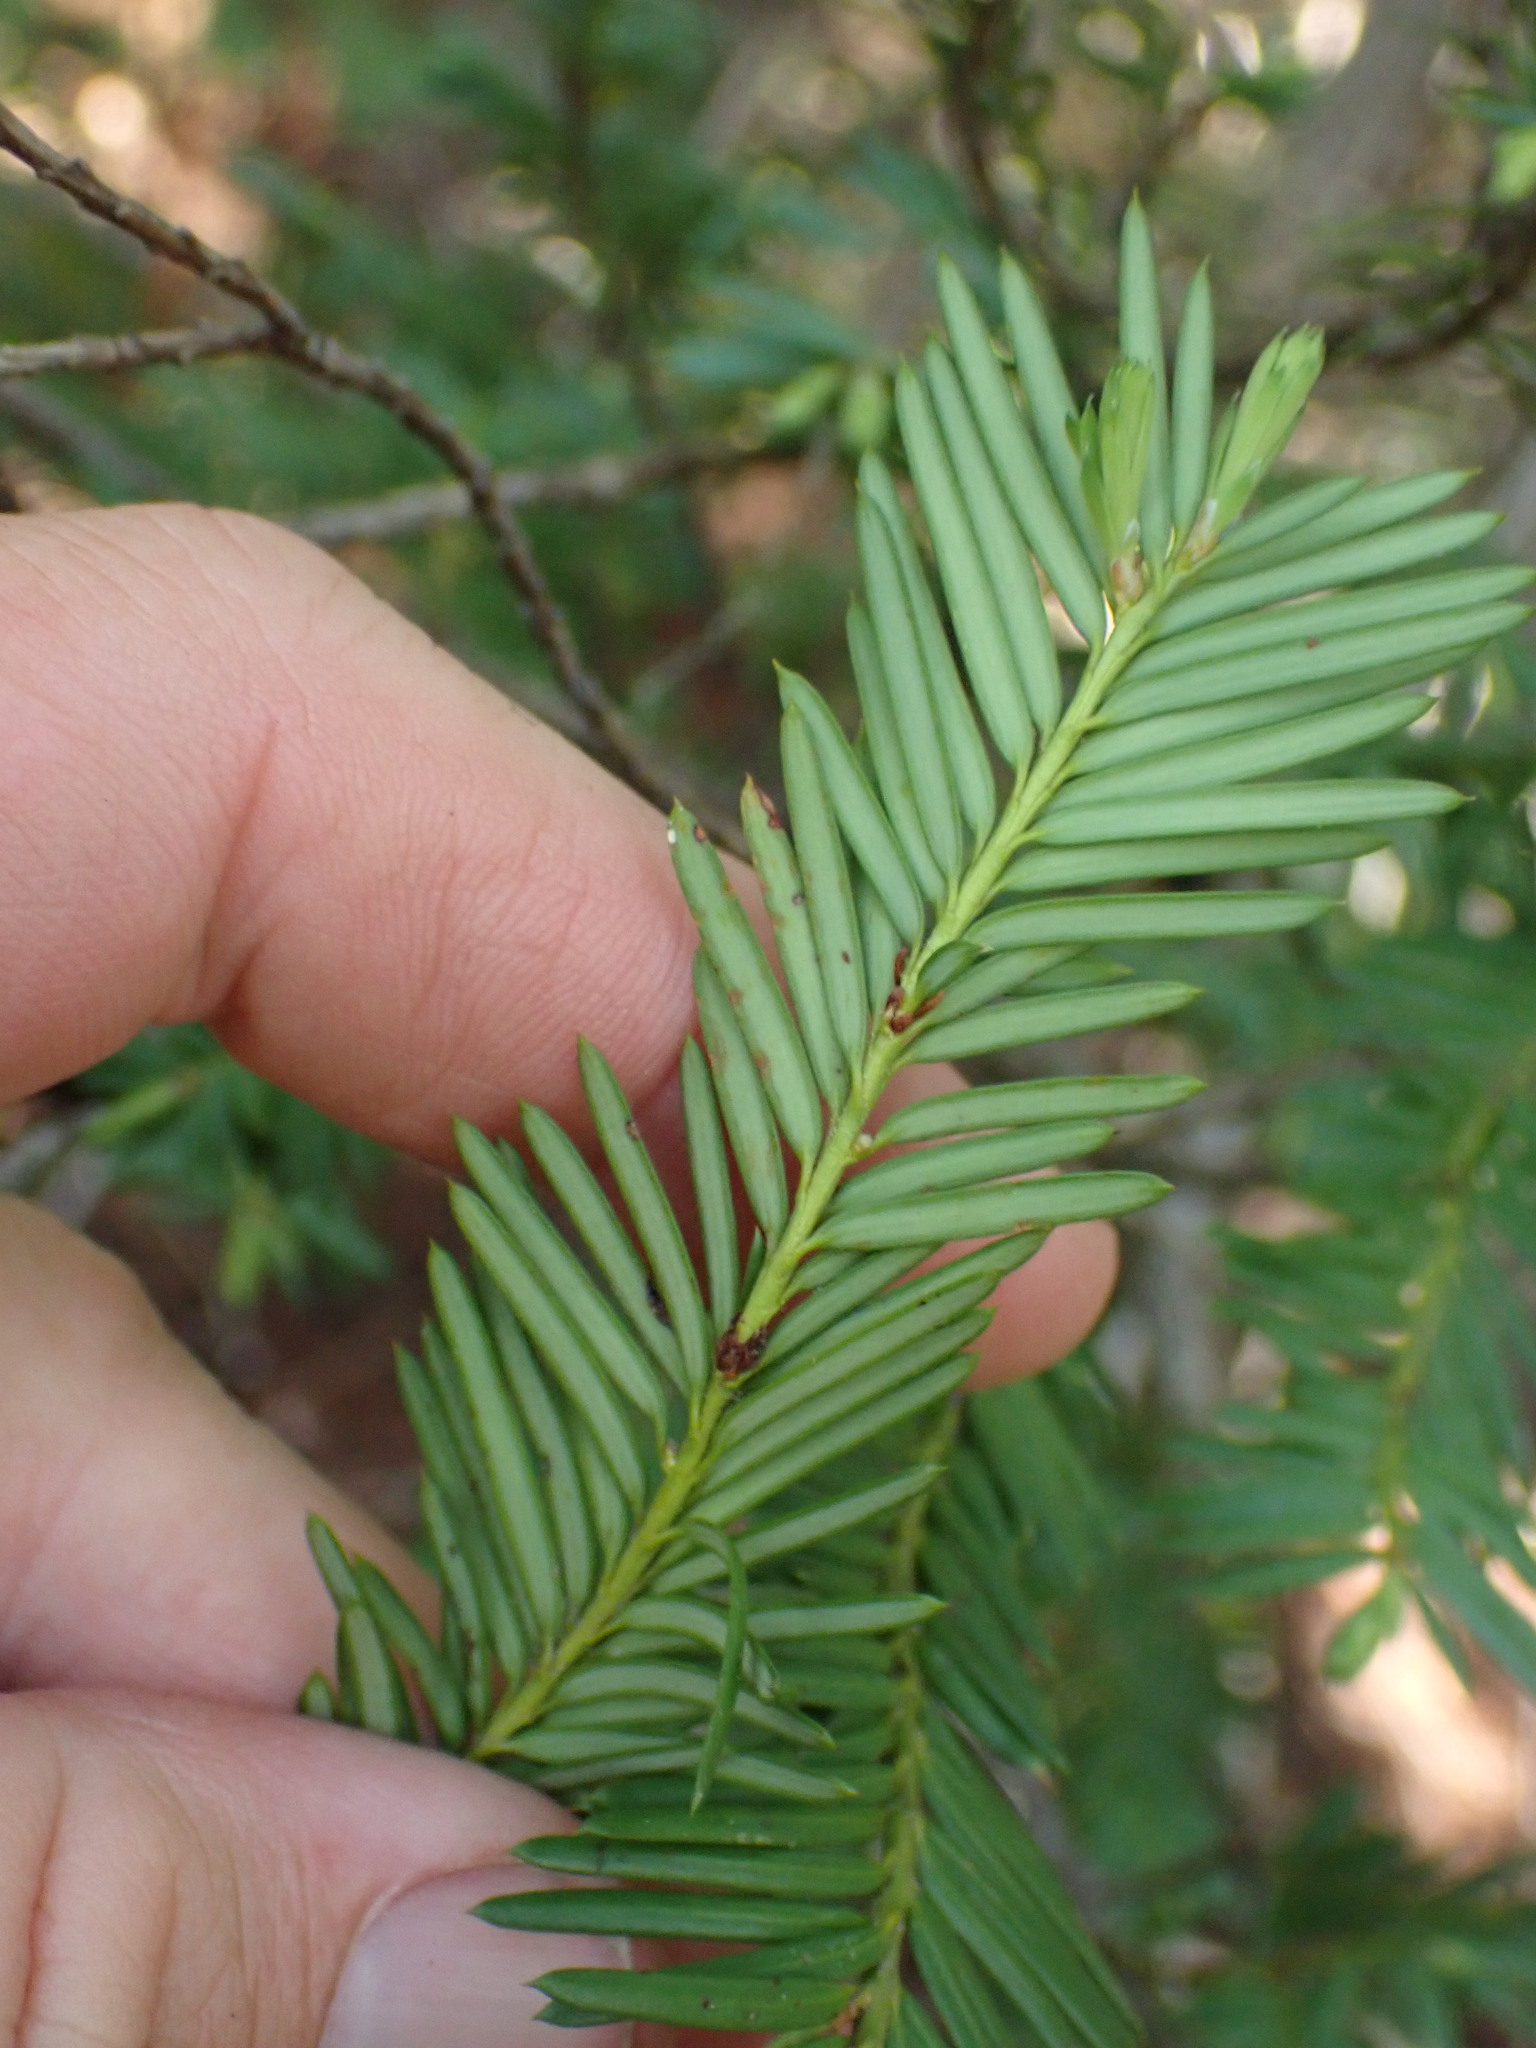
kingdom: Plantae
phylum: Tracheophyta
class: Pinopsida
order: Pinales
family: Taxaceae
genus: Taxus
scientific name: Taxus brevifolia
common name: Pacific yew
